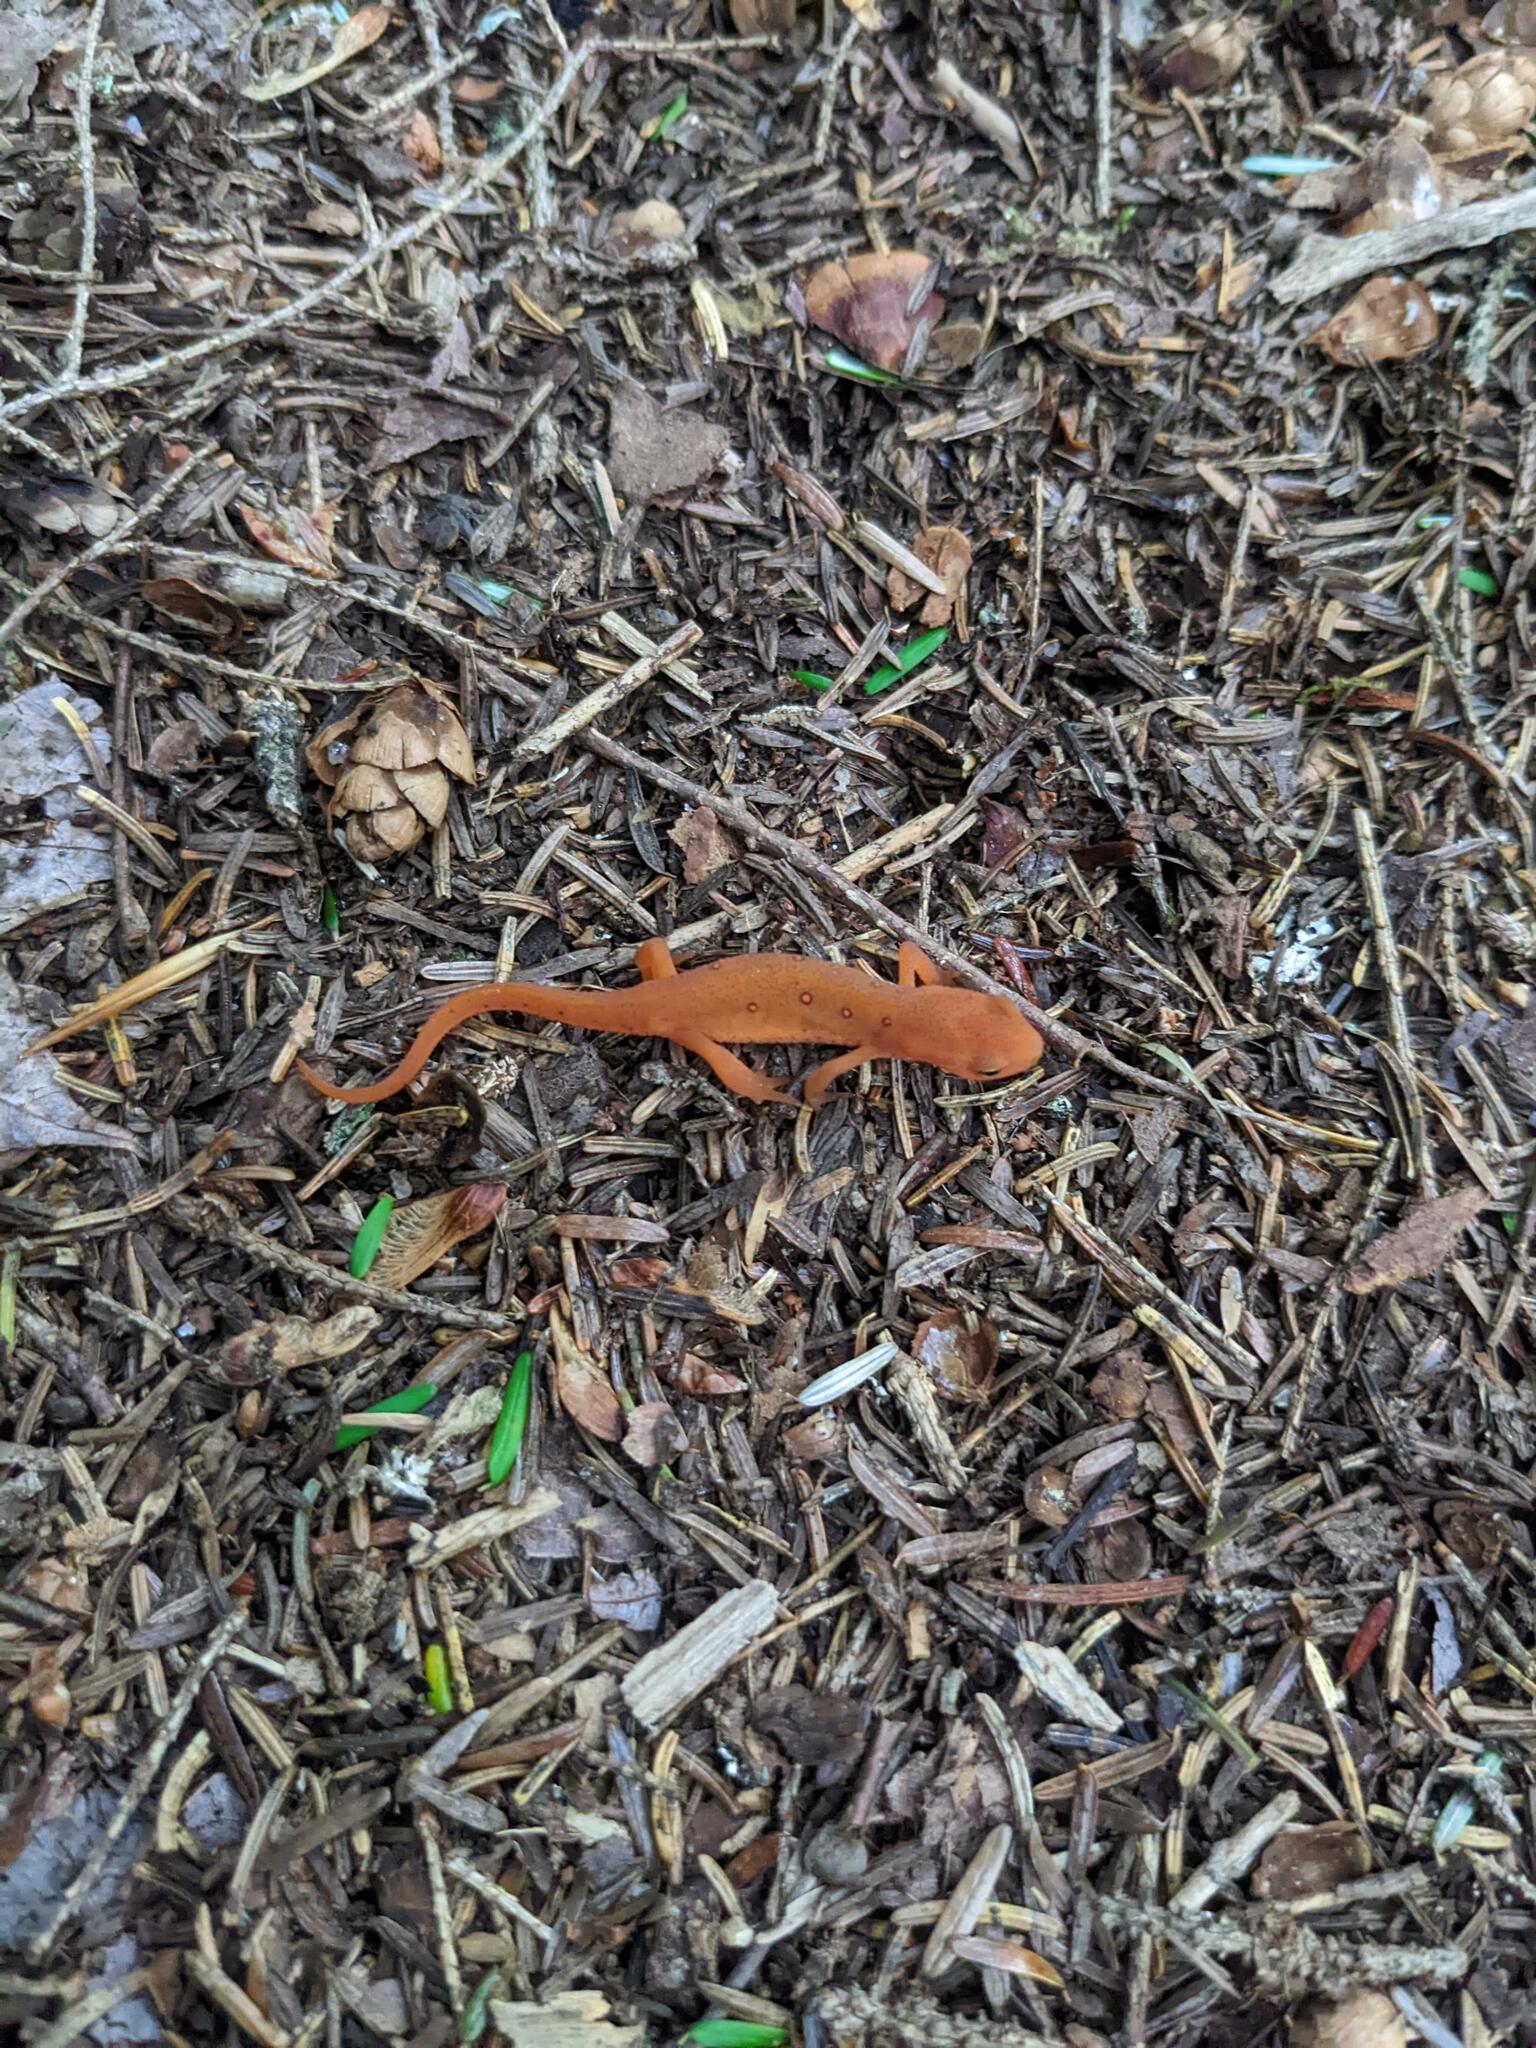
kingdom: Animalia
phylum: Chordata
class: Amphibia
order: Caudata
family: Salamandridae
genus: Notophthalmus
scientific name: Notophthalmus viridescens
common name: Eastern newt
